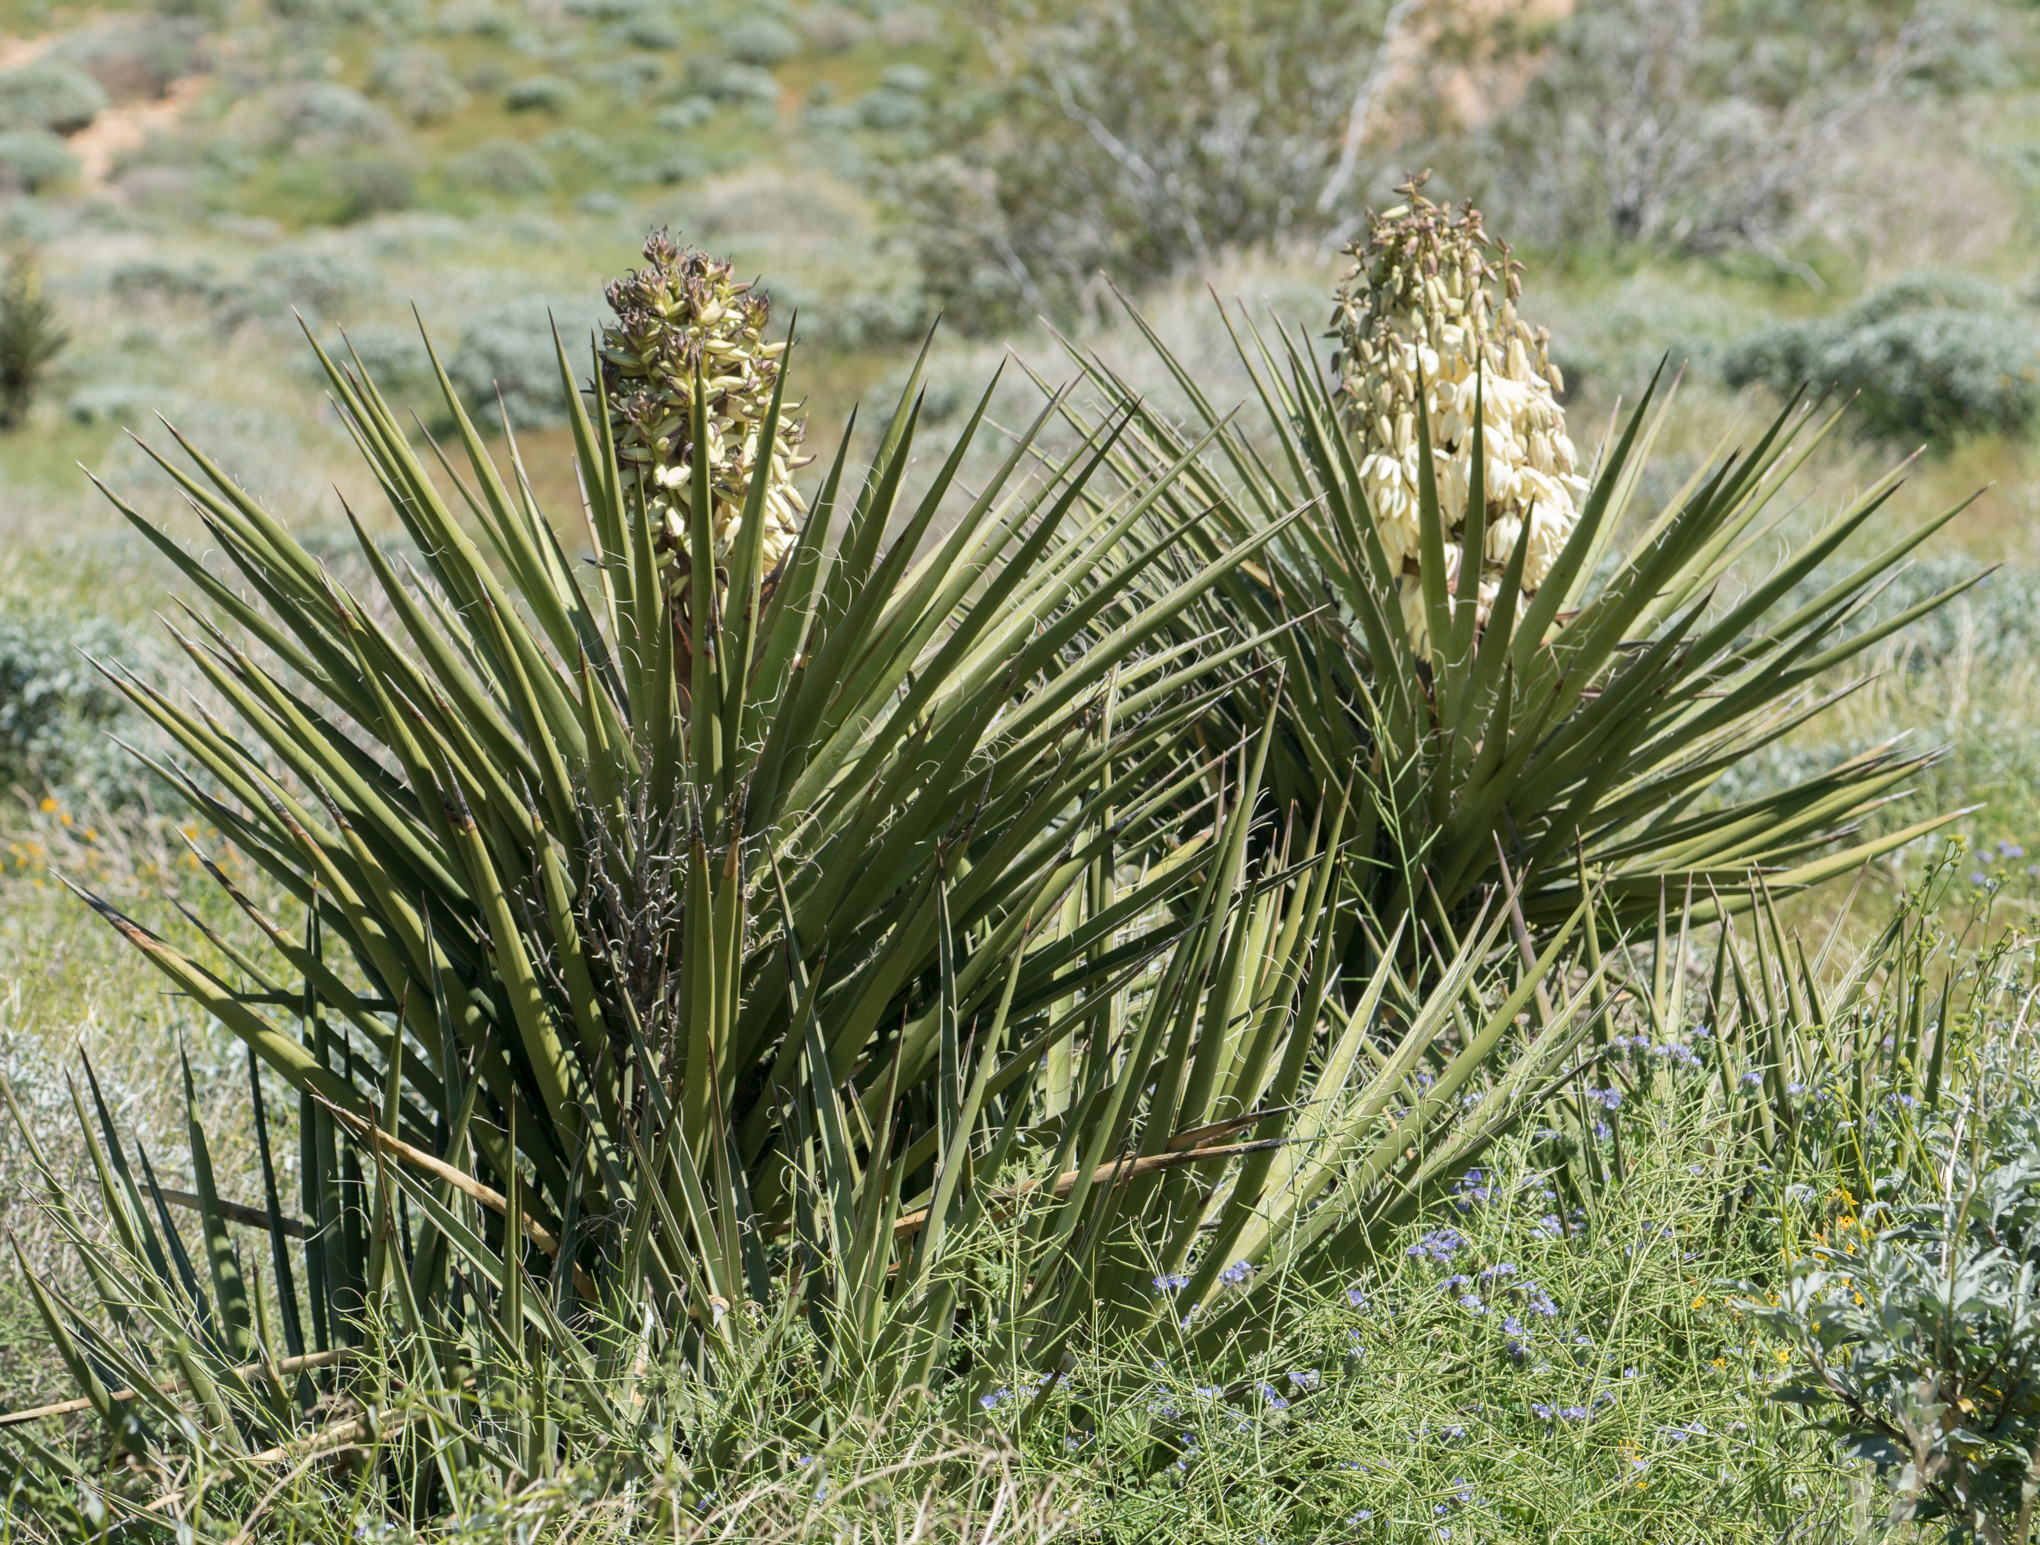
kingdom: Plantae
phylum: Tracheophyta
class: Liliopsida
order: Asparagales
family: Asparagaceae
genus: Yucca
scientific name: Yucca schidigera
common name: Mojave yucca
